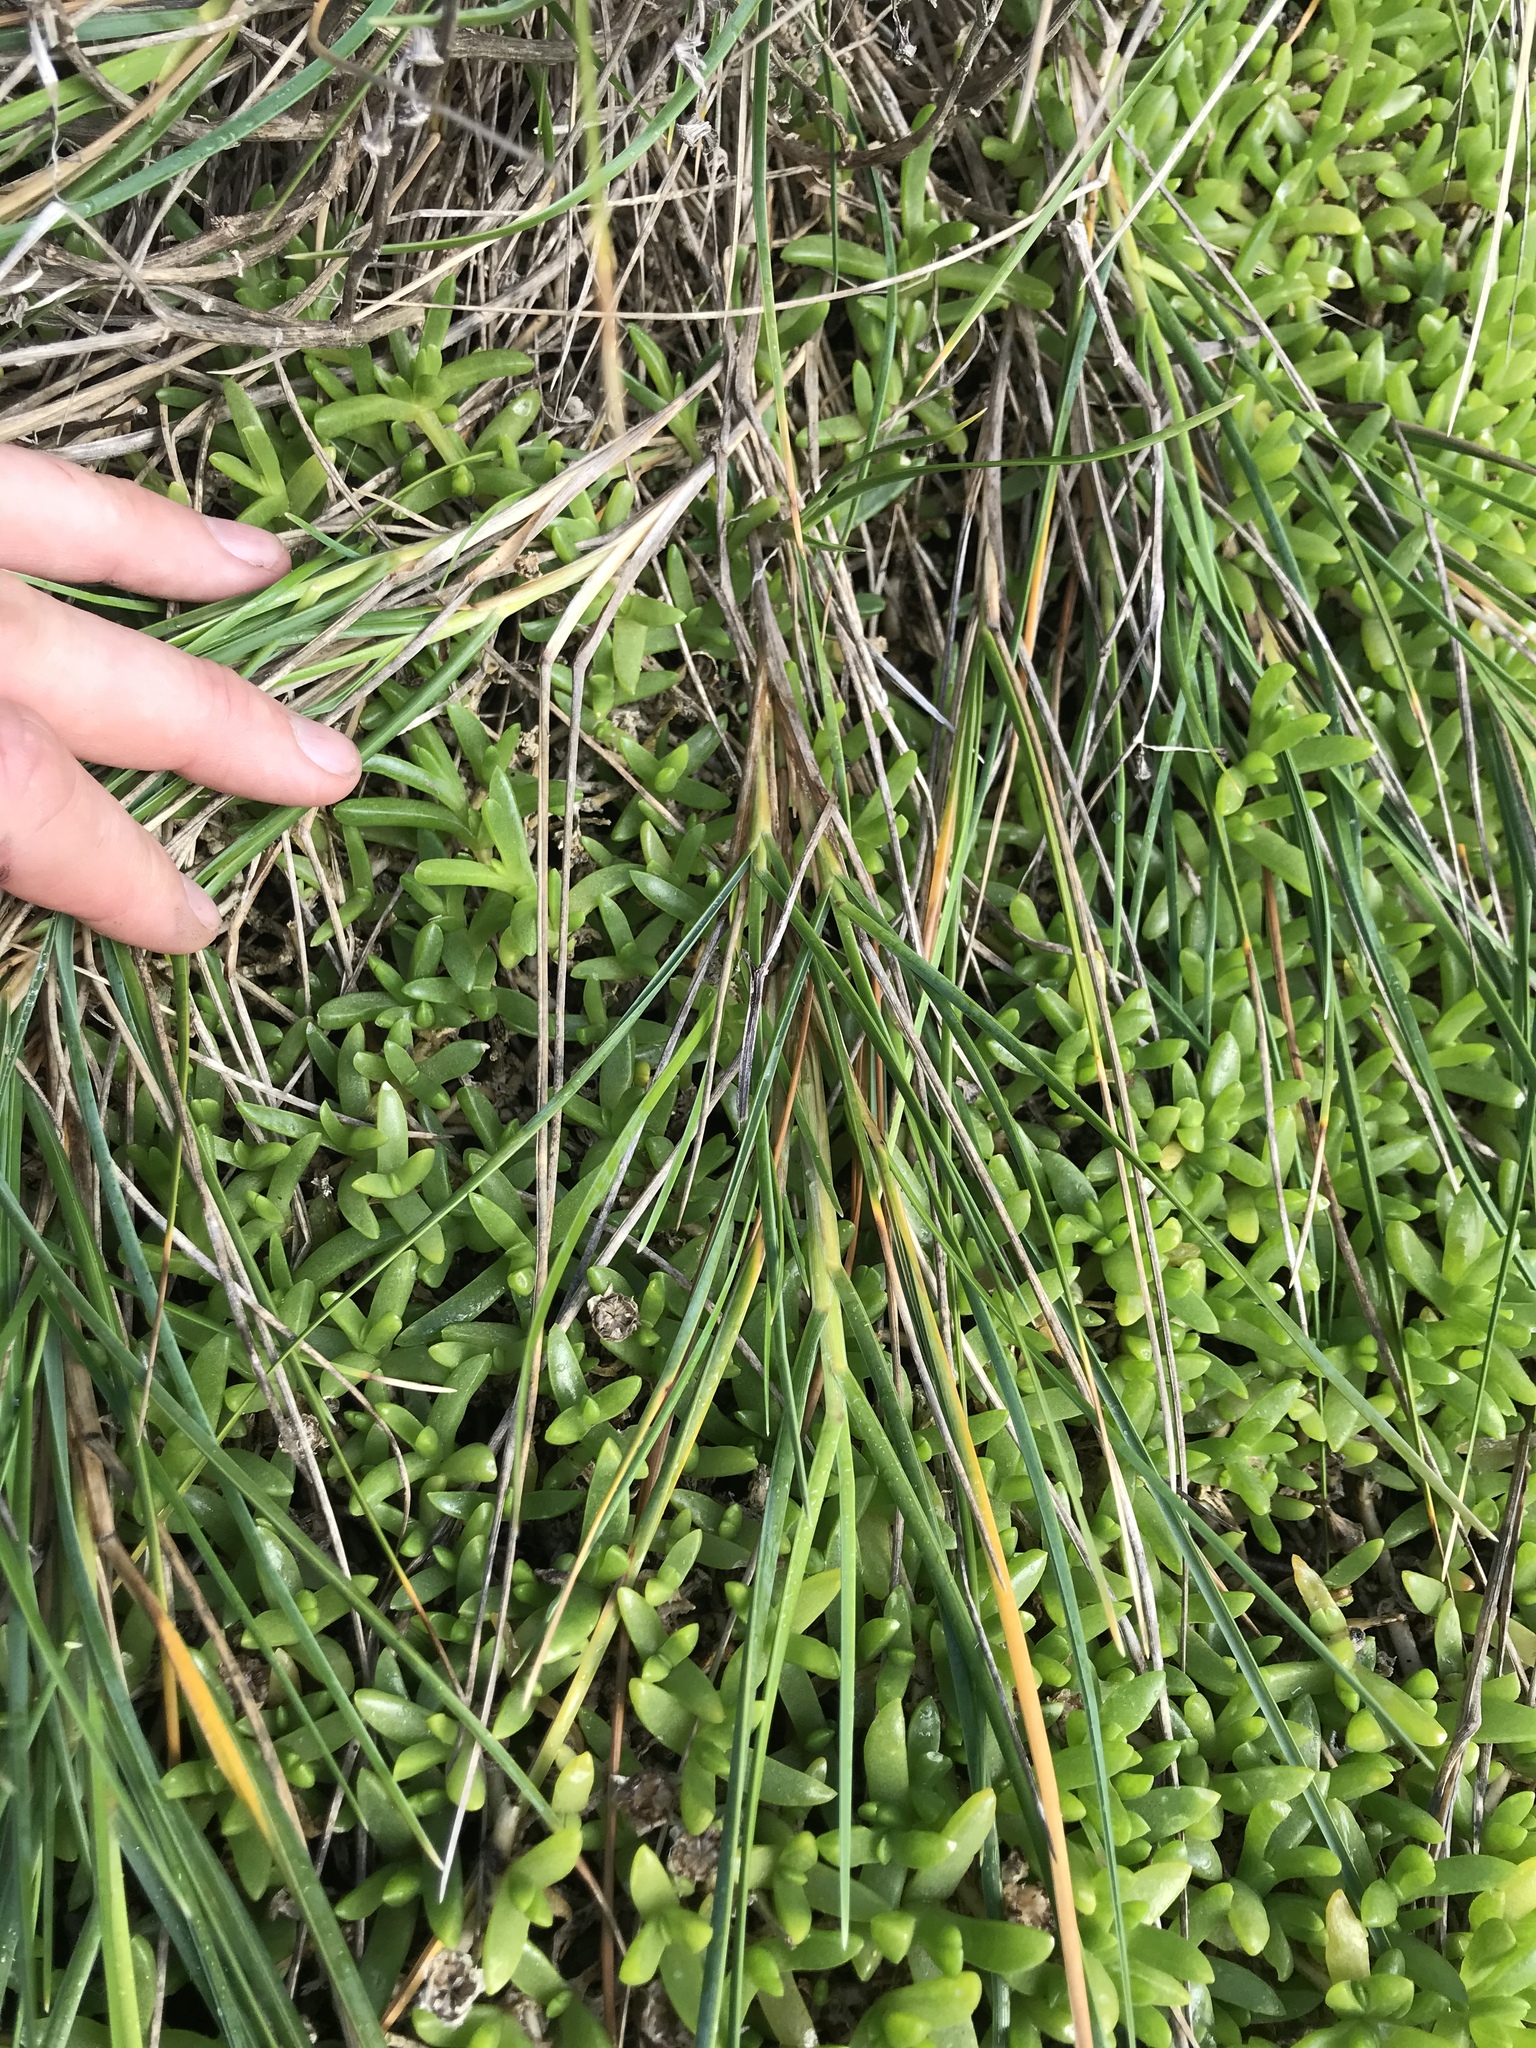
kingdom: Plantae
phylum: Tracheophyta
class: Liliopsida
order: Poales
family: Poaceae
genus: Poa
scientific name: Poa chathamica
